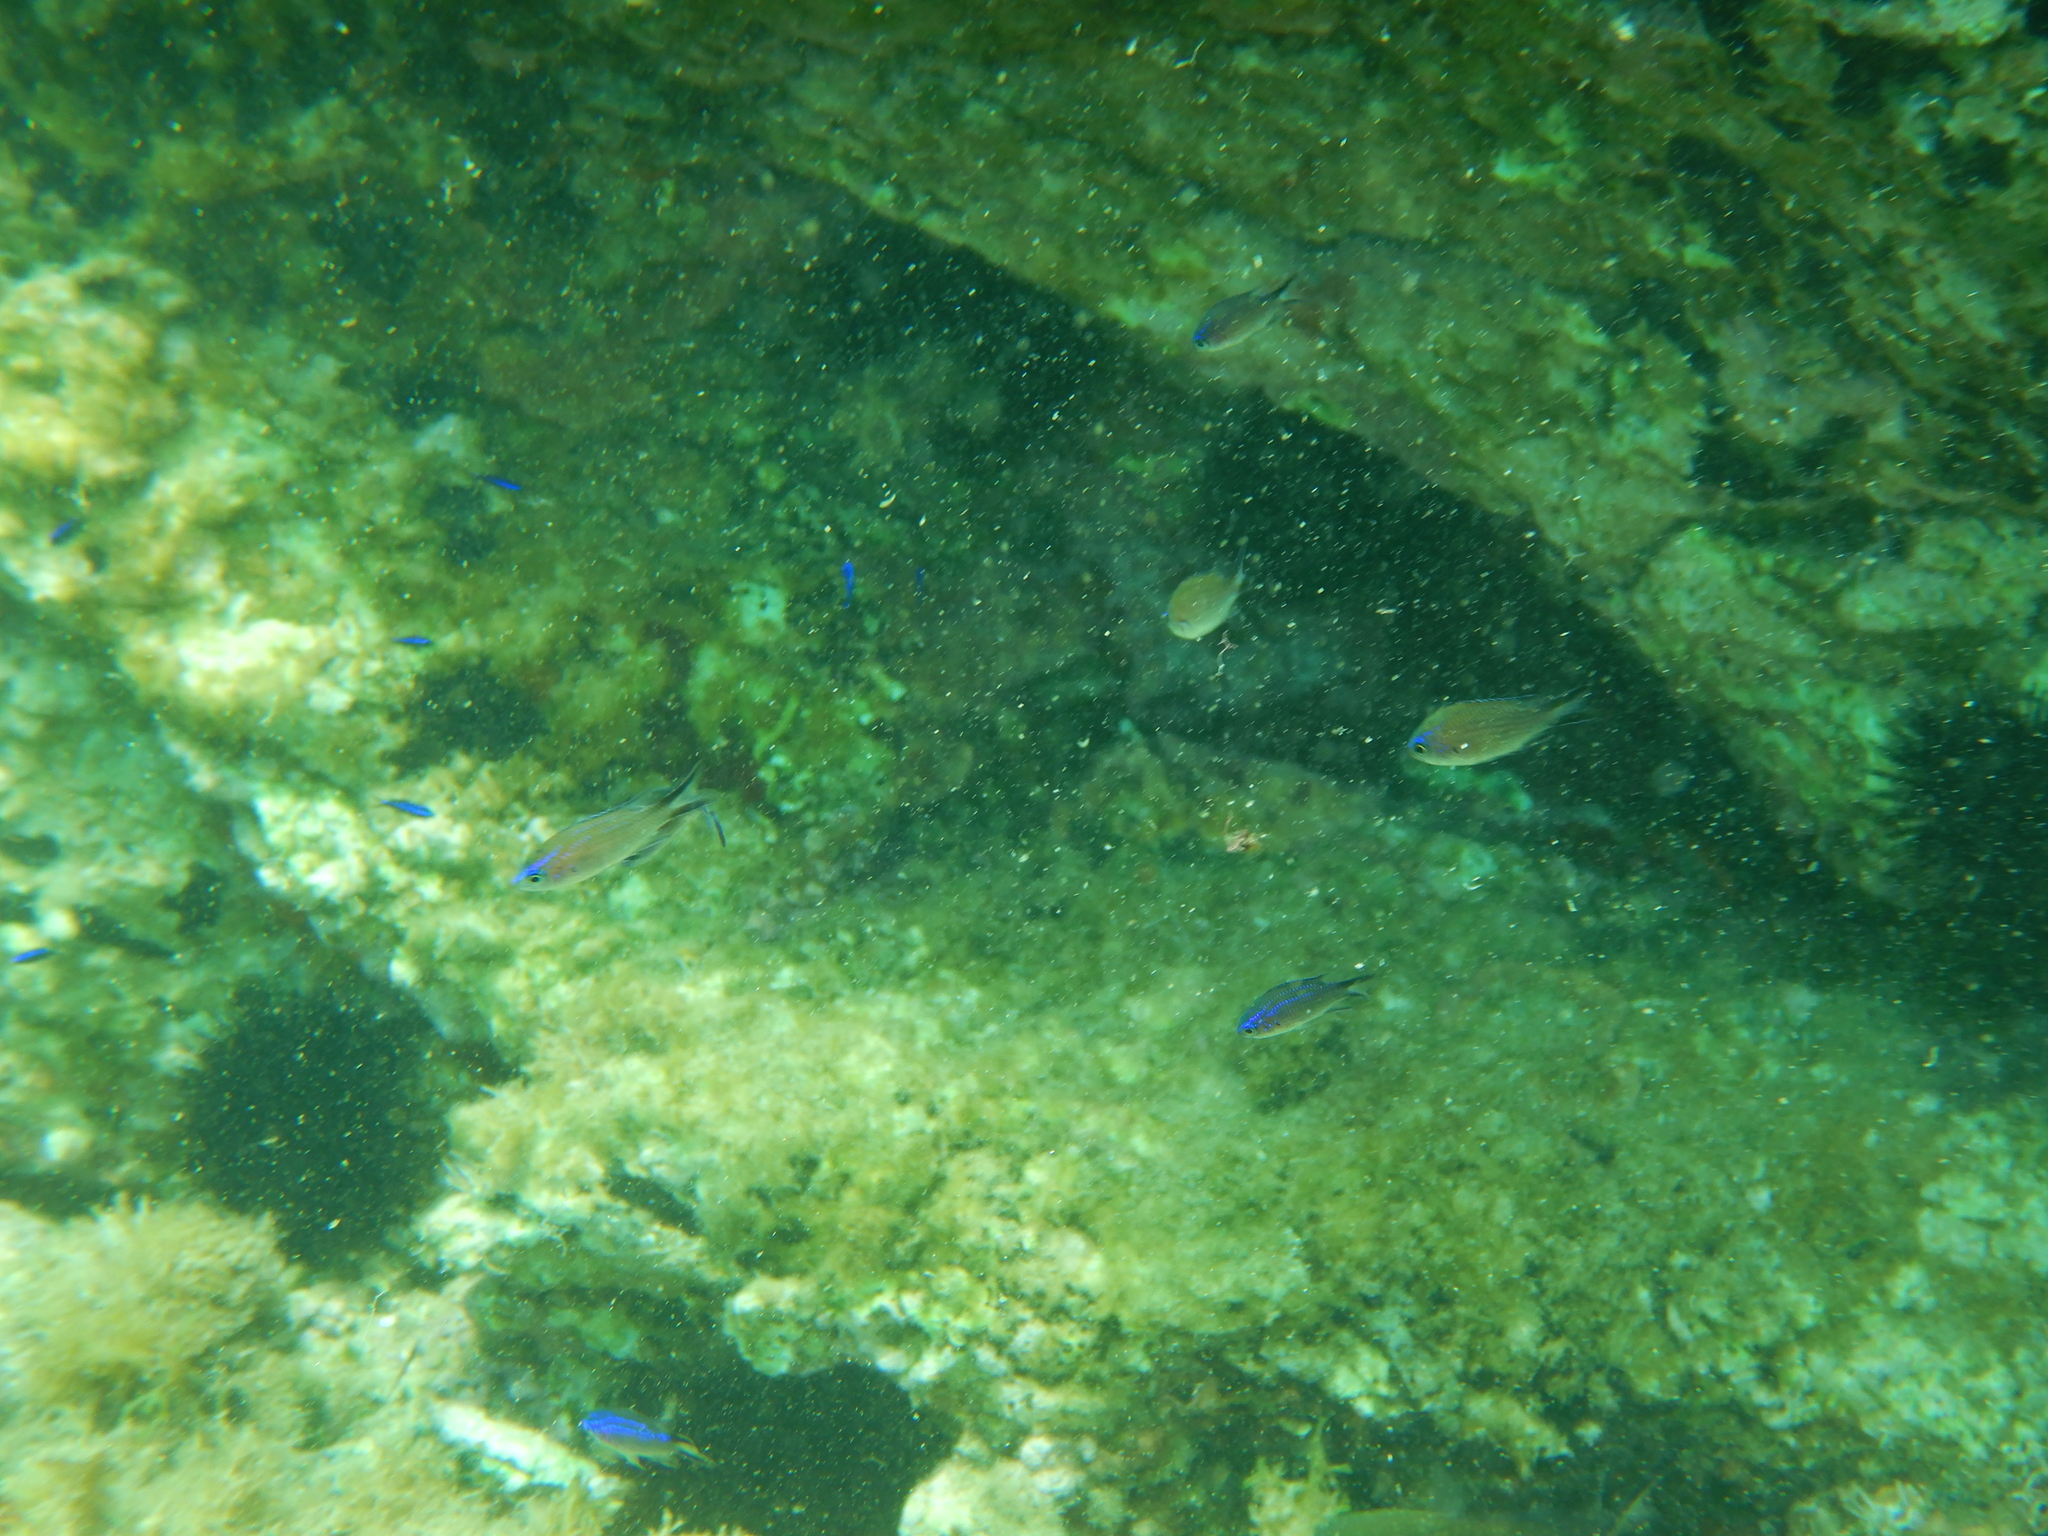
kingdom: Animalia
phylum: Chordata
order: Perciformes
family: Pomacentridae
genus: Chromis
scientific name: Chromis chromis
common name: Damselfish
